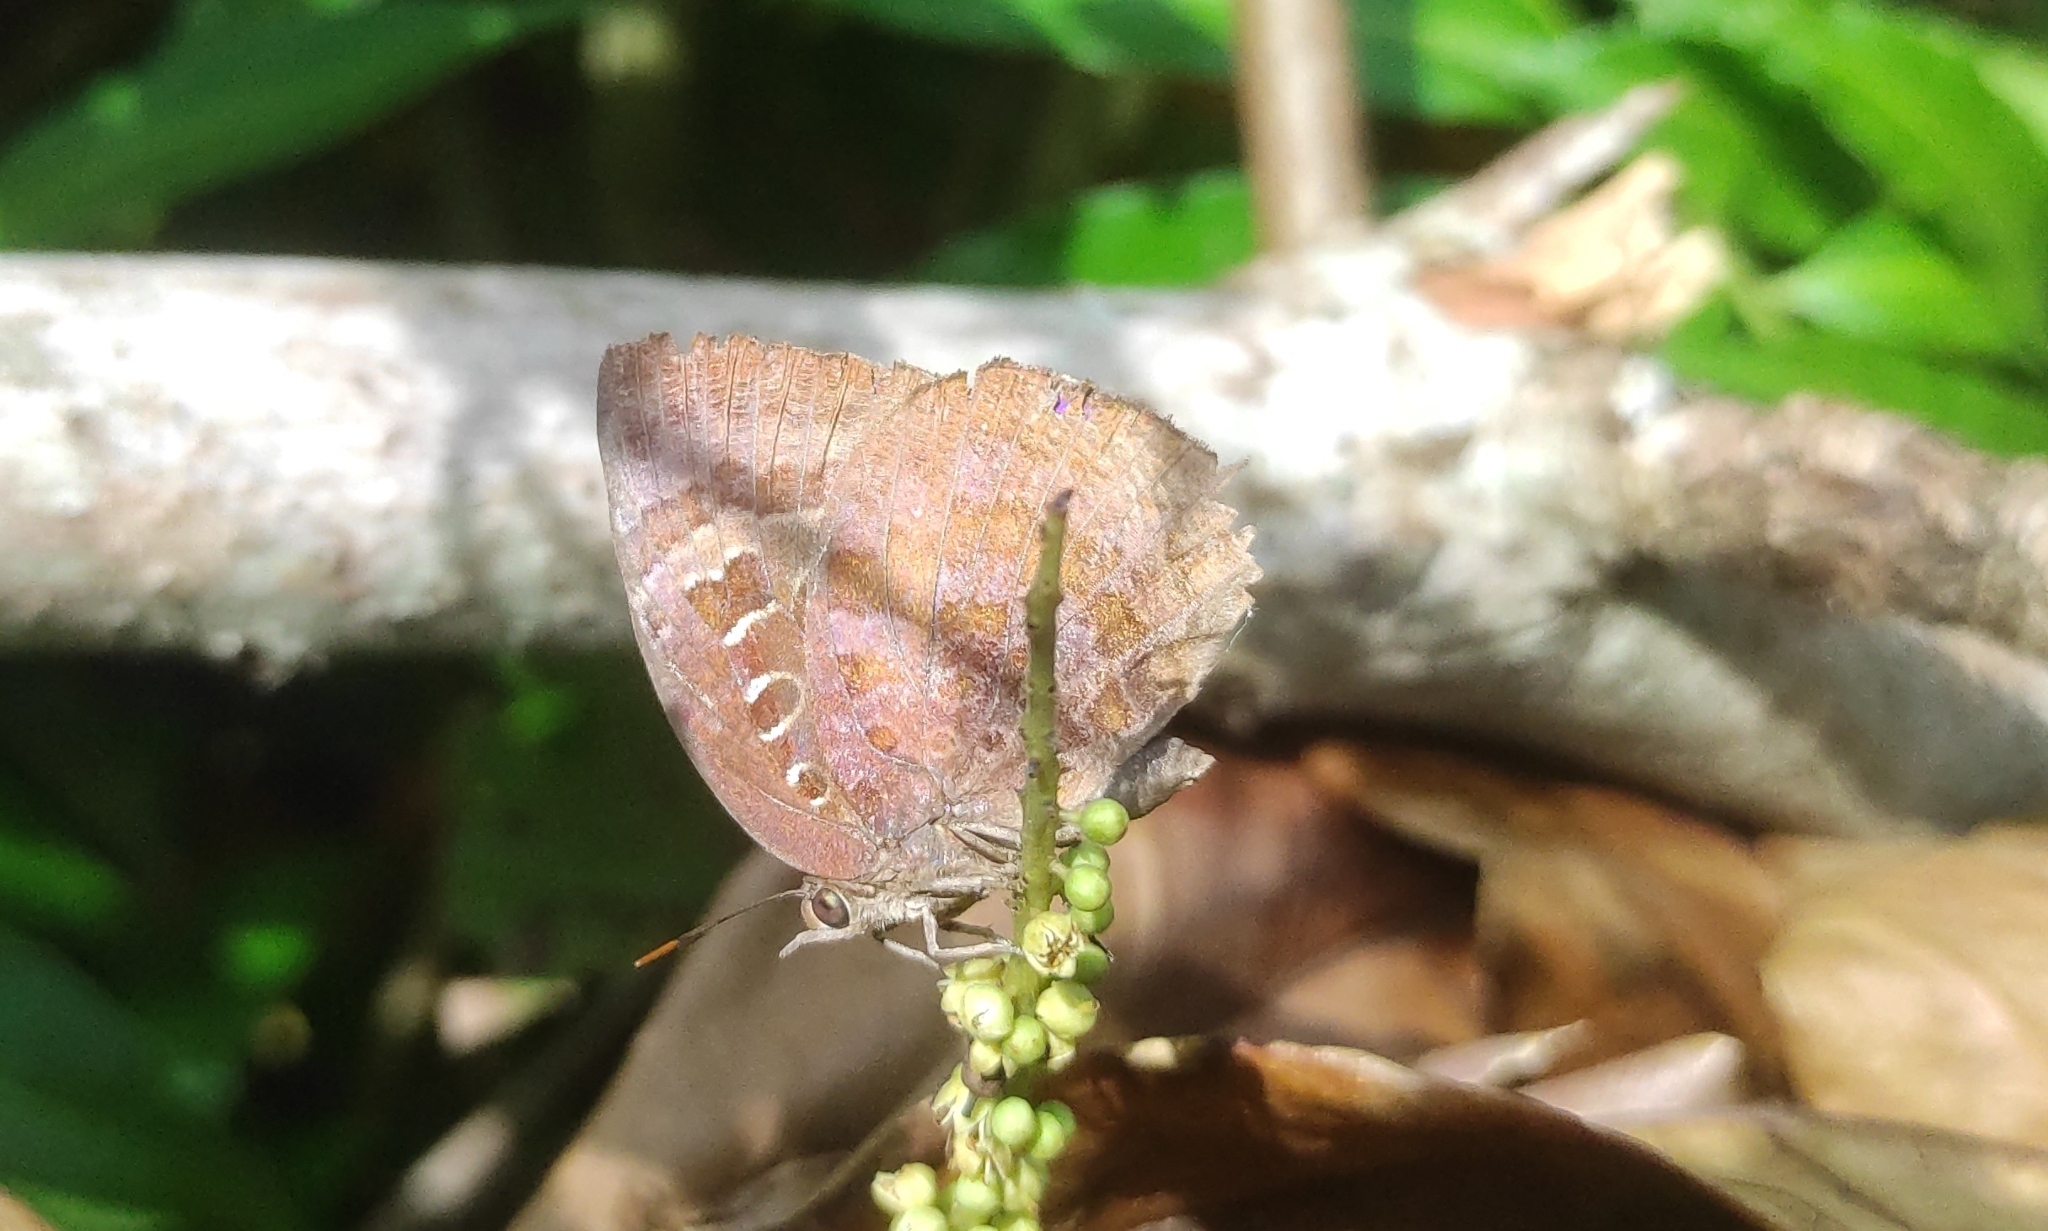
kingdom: Animalia
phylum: Arthropoda
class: Insecta
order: Lepidoptera
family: Lycaenidae
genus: Arhopala
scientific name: Arhopala centaurus
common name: Dull oak-blue
